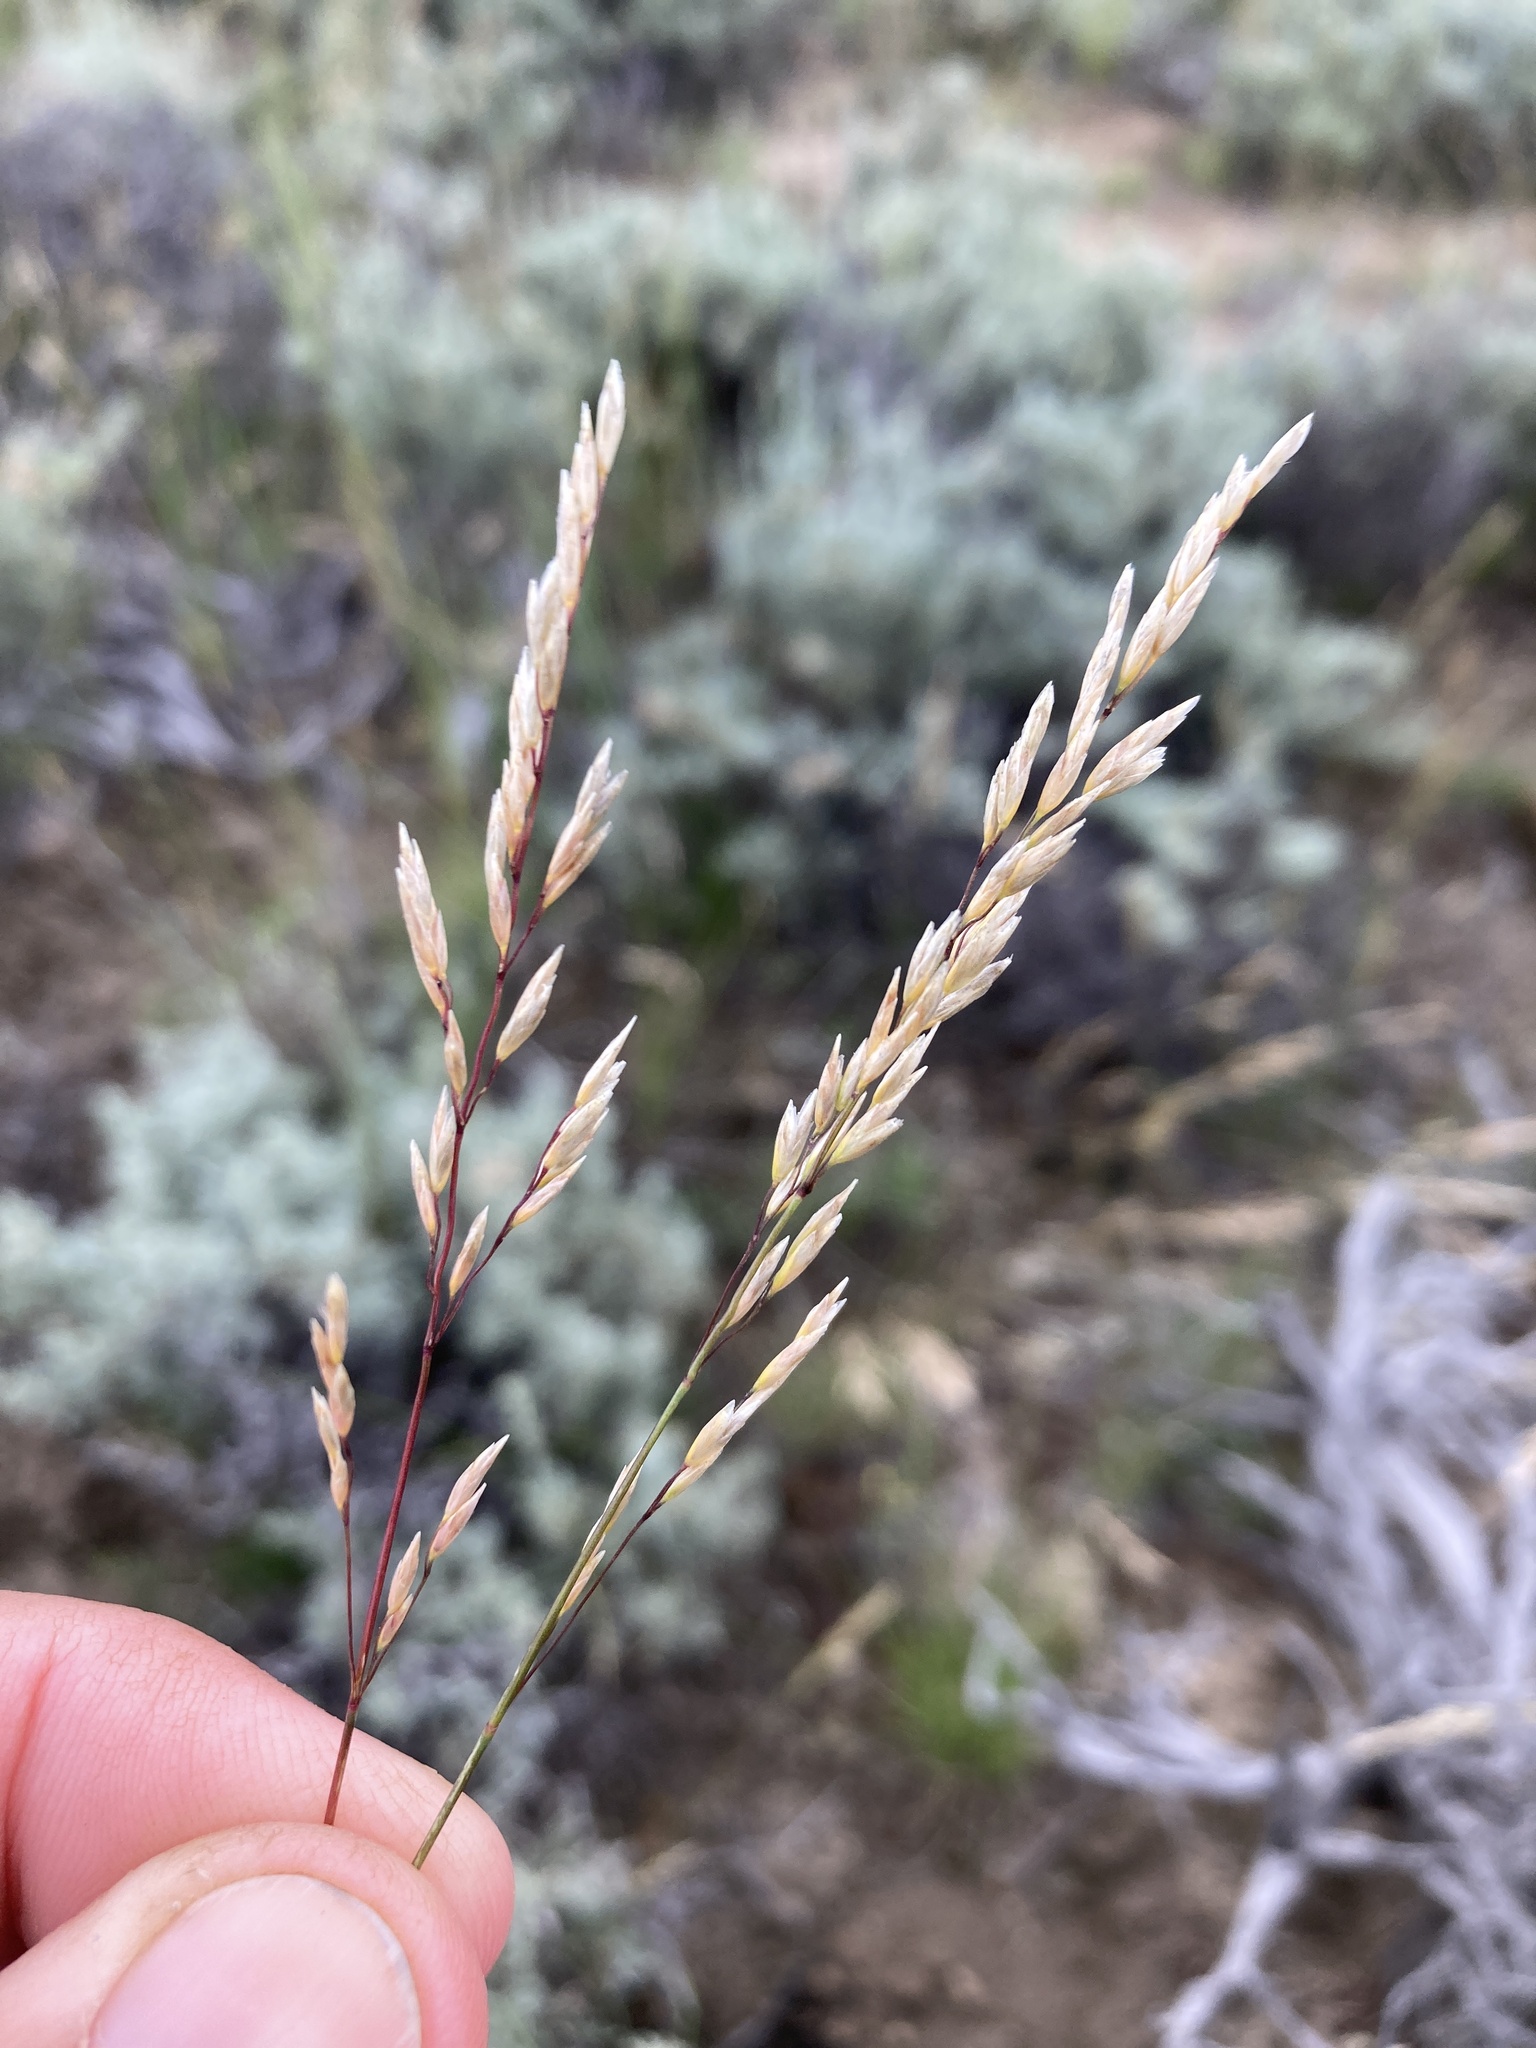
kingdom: Plantae
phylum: Tracheophyta
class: Liliopsida
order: Poales
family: Poaceae
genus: Poa
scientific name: Poa secunda
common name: Sandberg bluegrass
